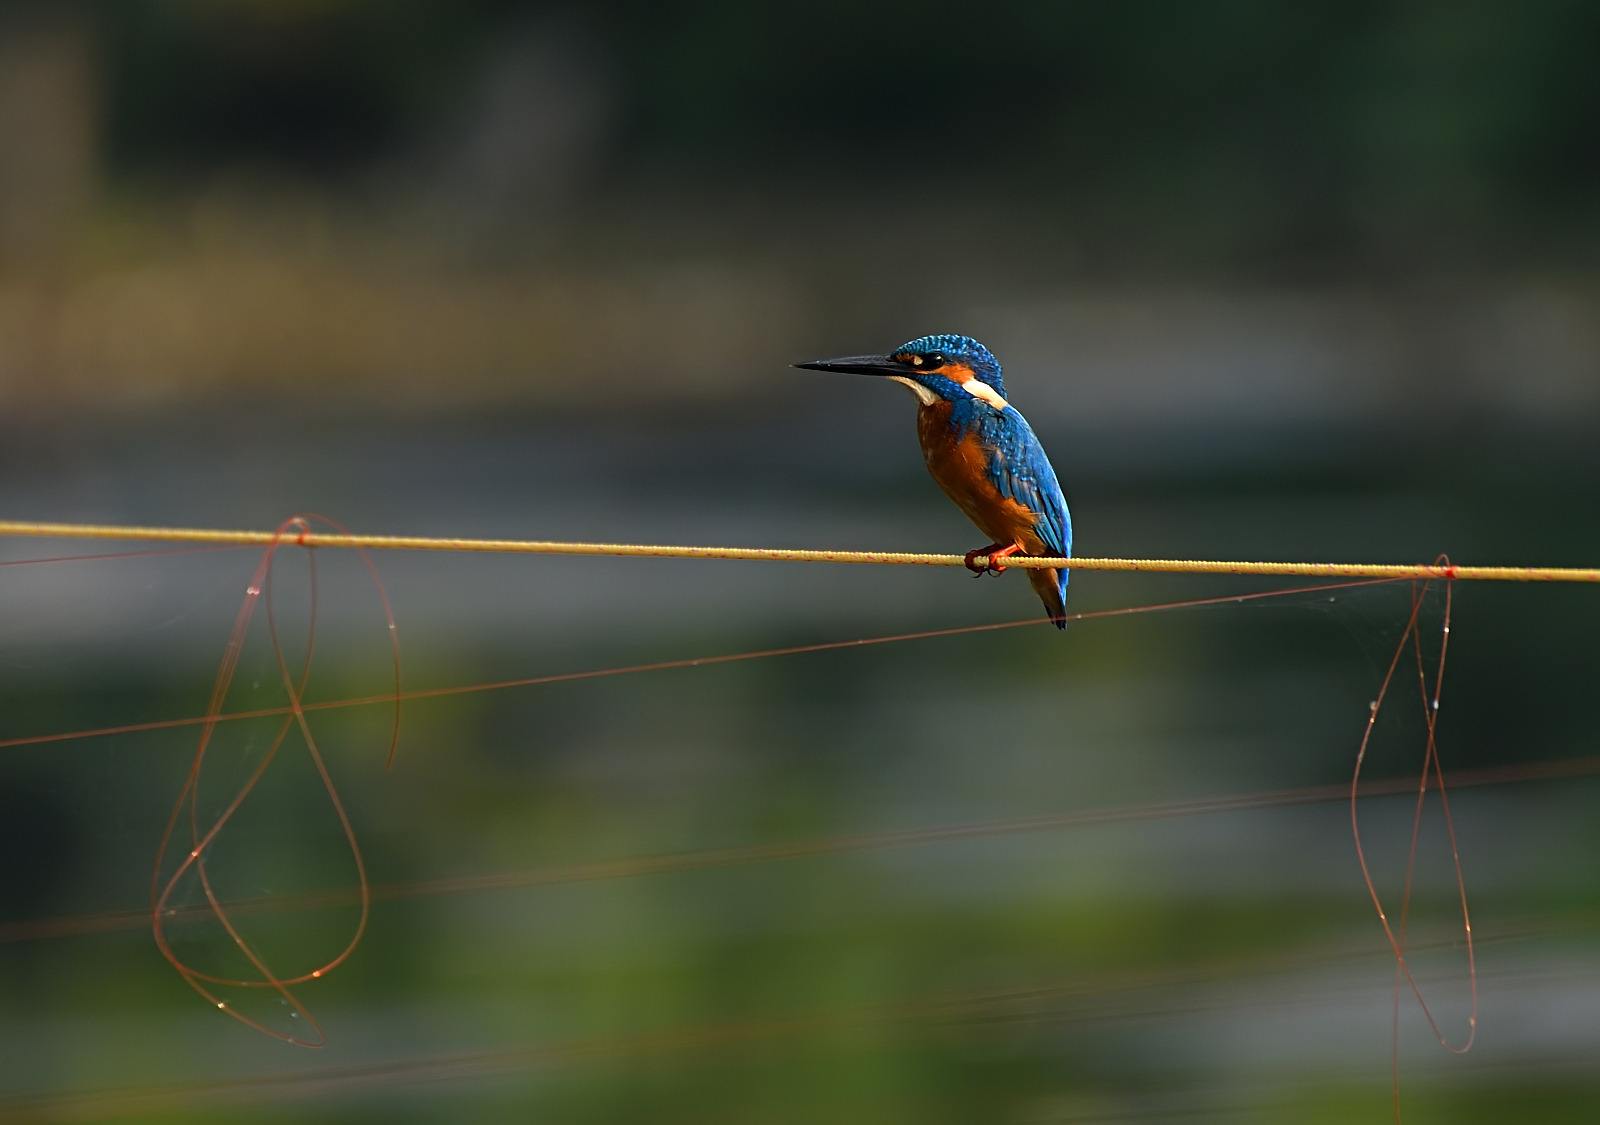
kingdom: Animalia
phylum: Chordata
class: Aves
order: Coraciiformes
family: Alcedinidae
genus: Alcedo
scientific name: Alcedo atthis
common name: Common kingfisher
